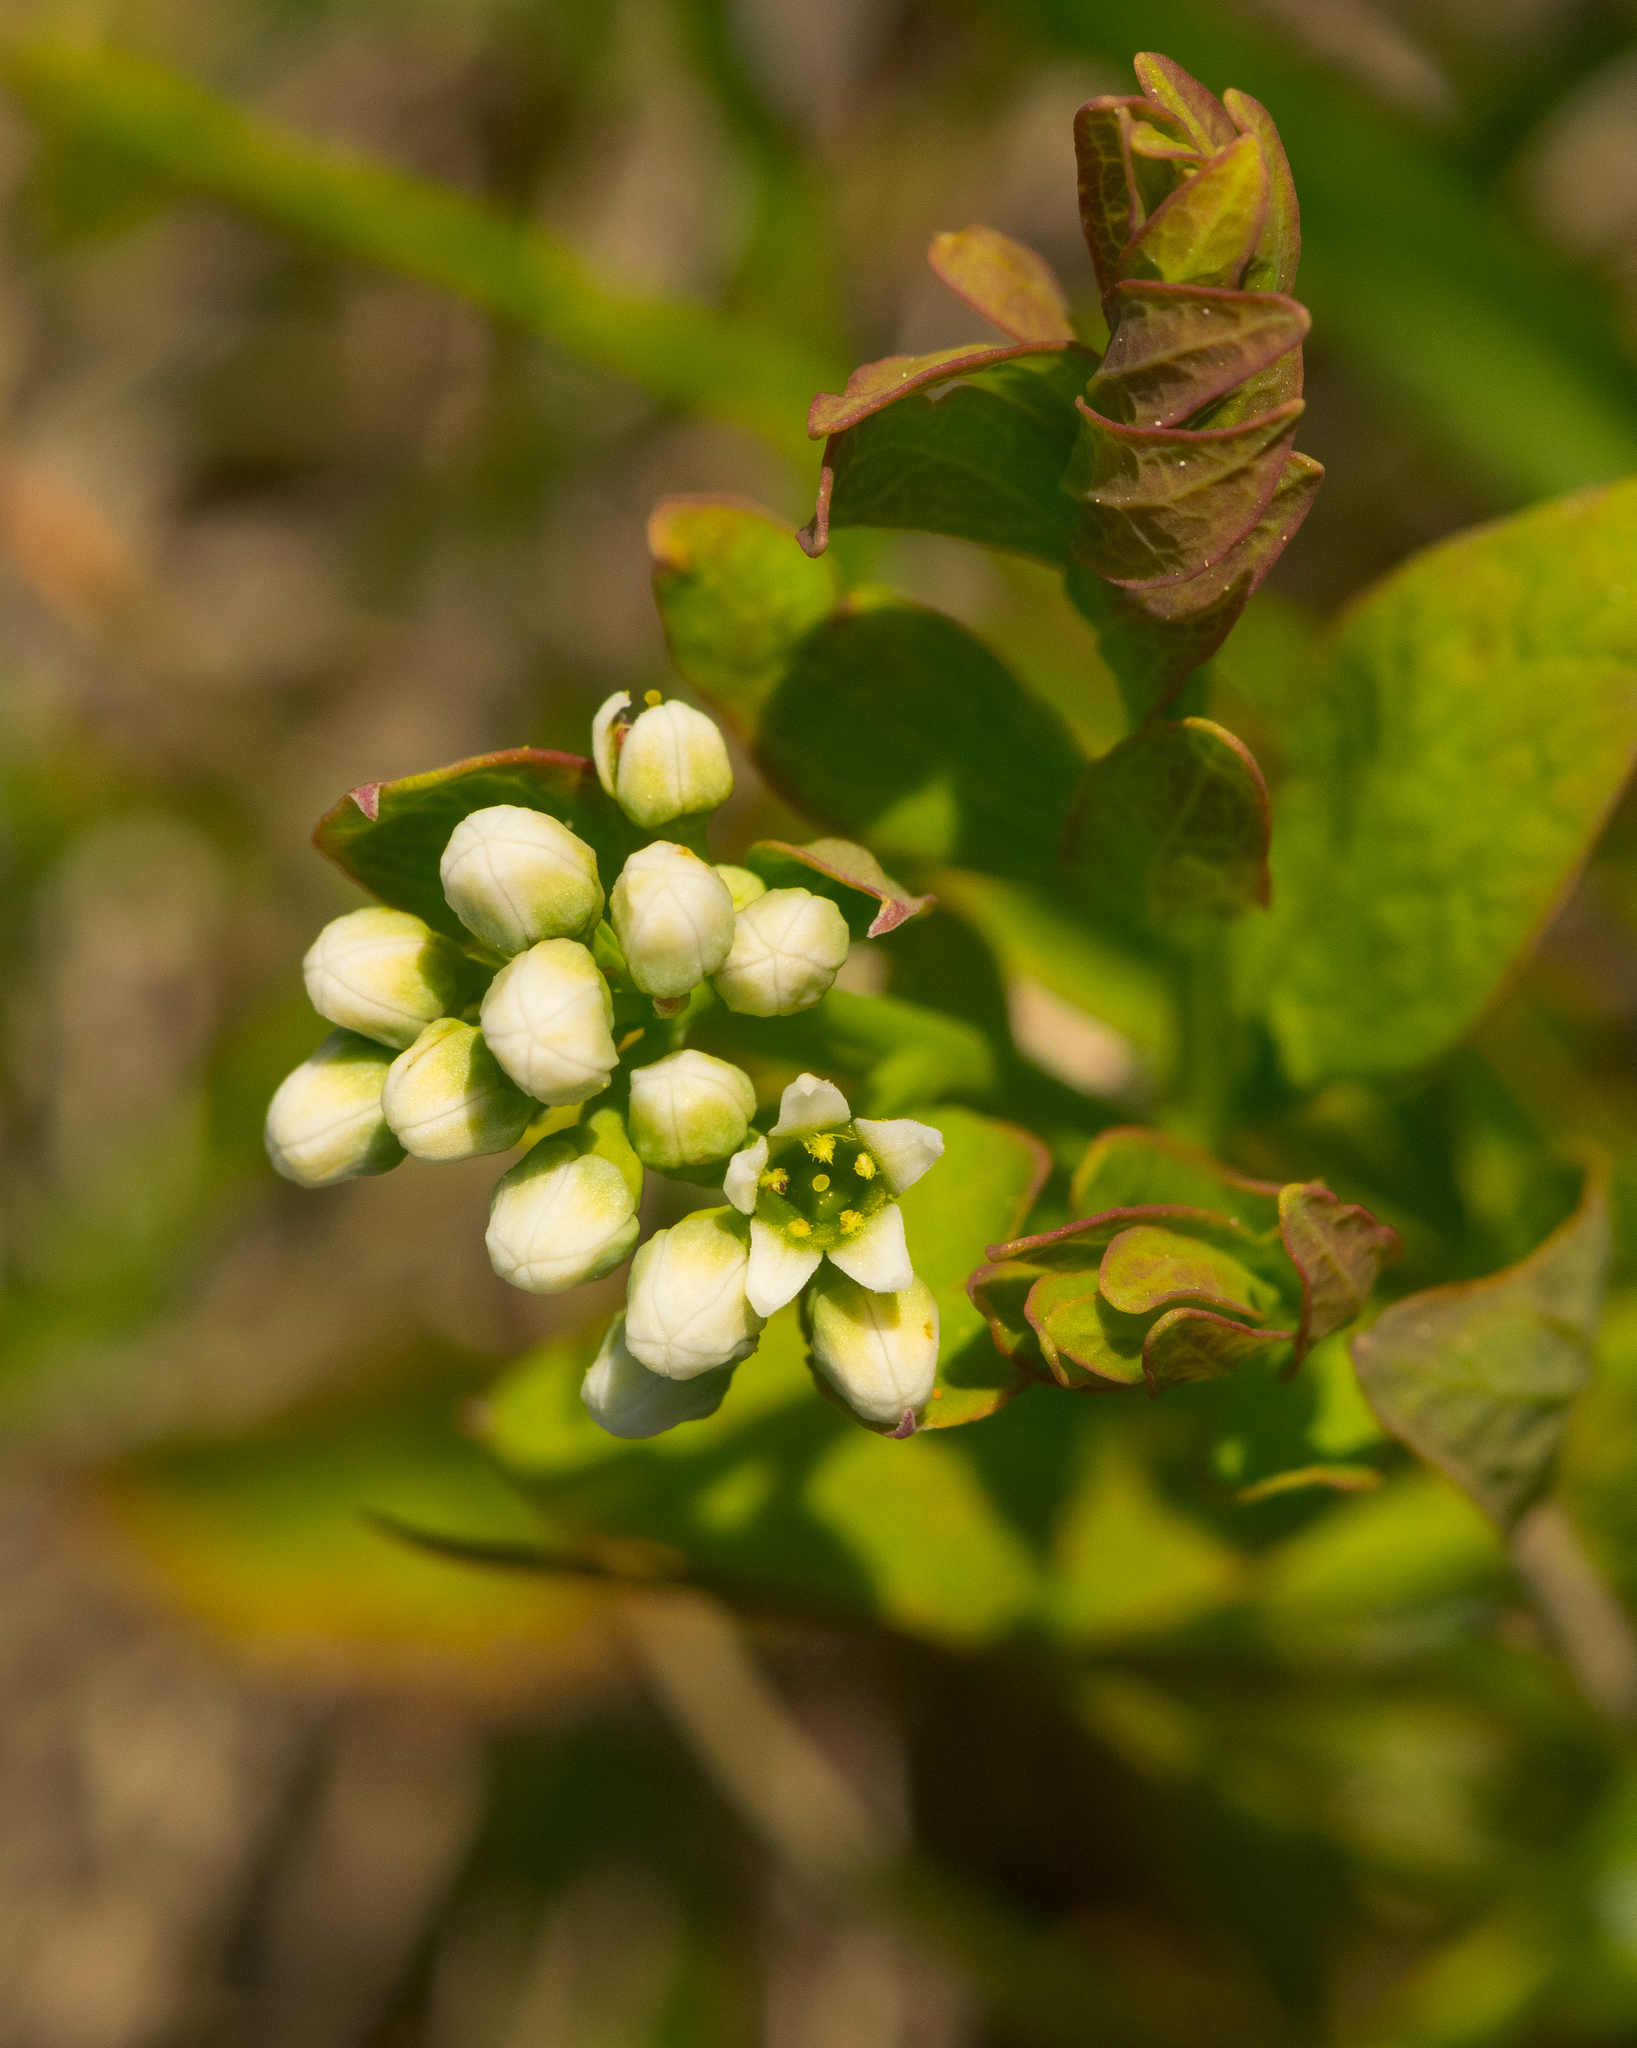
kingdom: Plantae
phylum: Tracheophyta
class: Magnoliopsida
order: Santalales
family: Comandraceae
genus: Comandra
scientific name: Comandra umbellata
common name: Bastard toadflax
